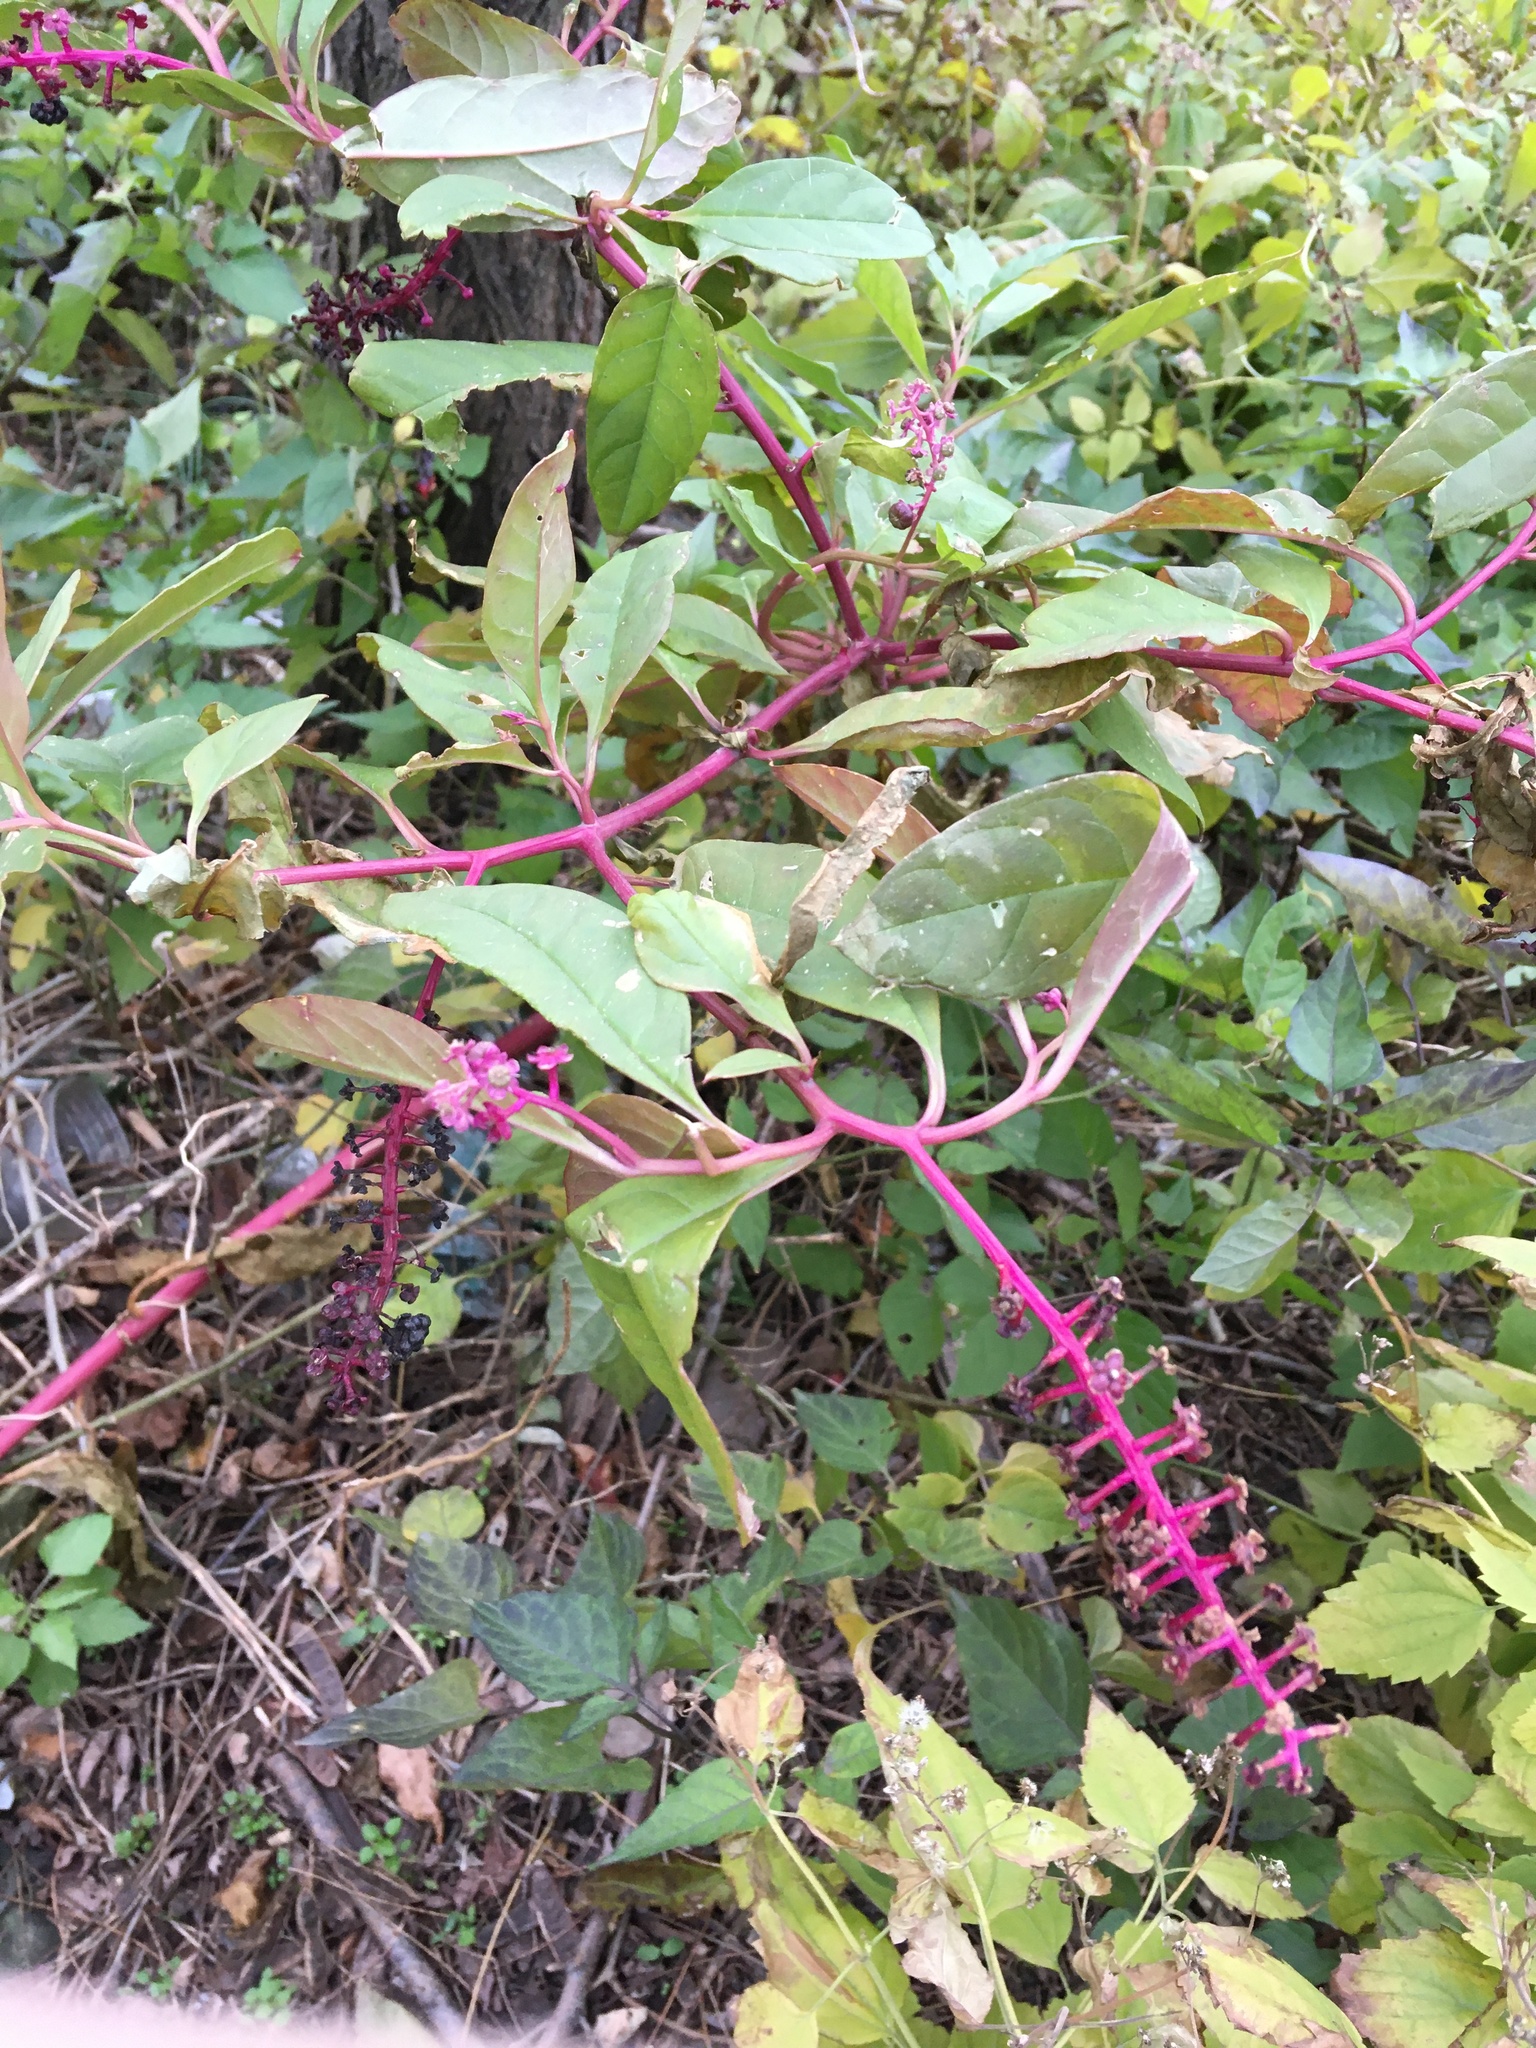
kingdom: Plantae
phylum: Tracheophyta
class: Magnoliopsida
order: Caryophyllales
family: Phytolaccaceae
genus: Phytolacca
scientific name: Phytolacca americana
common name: American pokeweed
